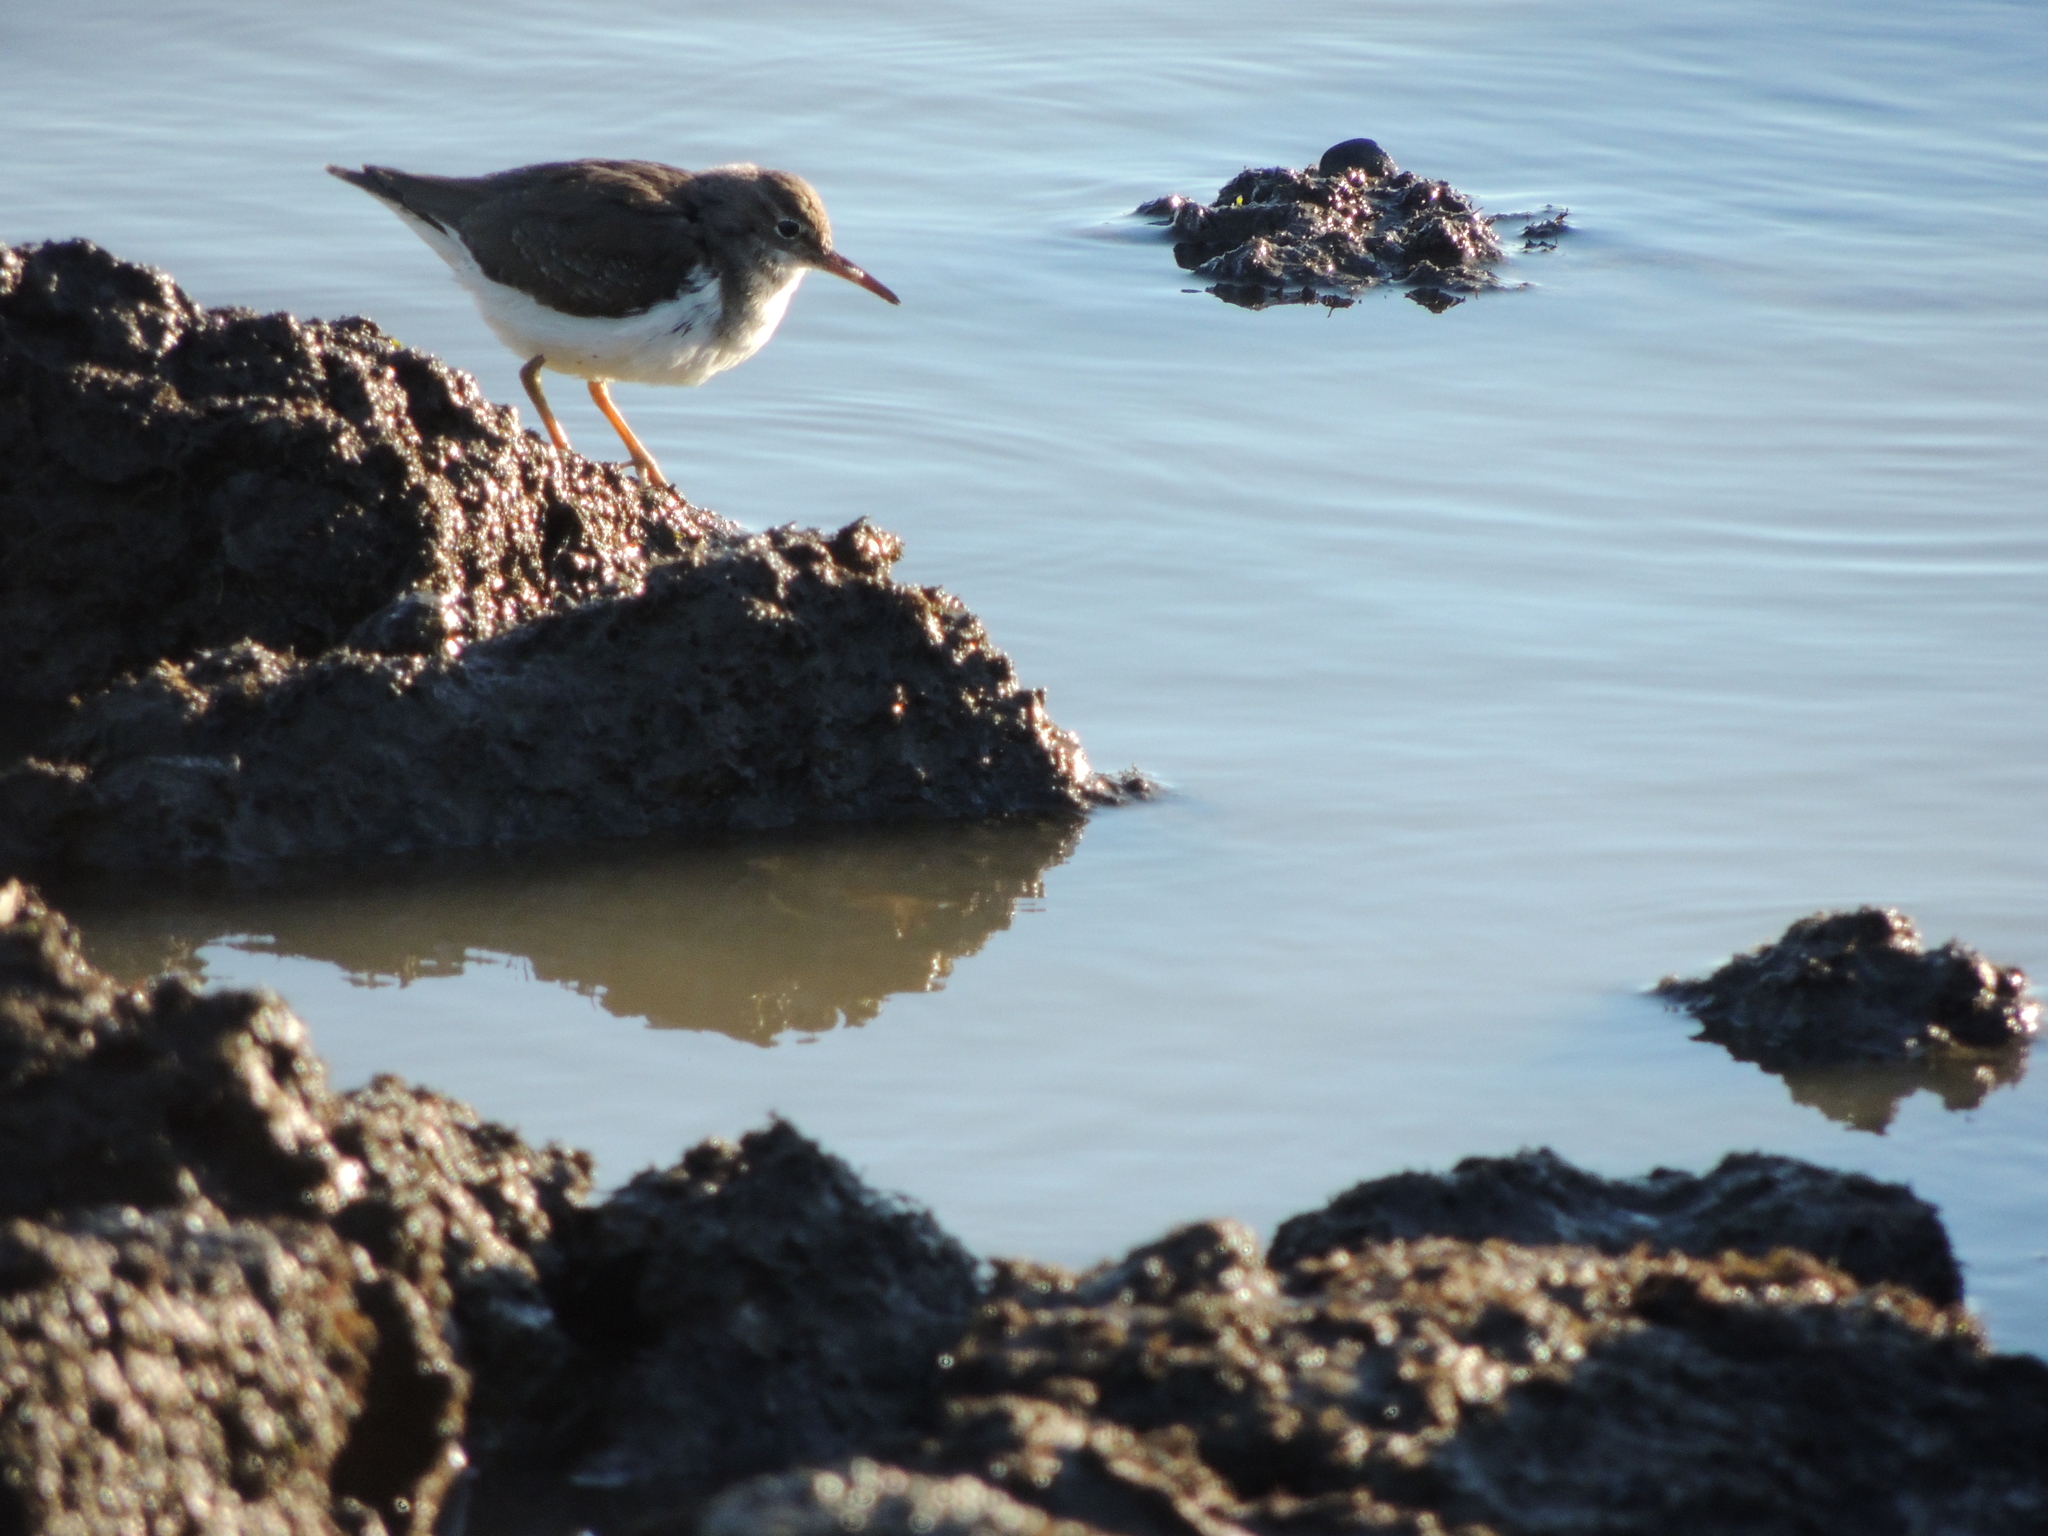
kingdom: Animalia
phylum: Chordata
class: Aves
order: Charadriiformes
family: Scolopacidae
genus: Actitis
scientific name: Actitis macularius
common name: Spotted sandpiper
